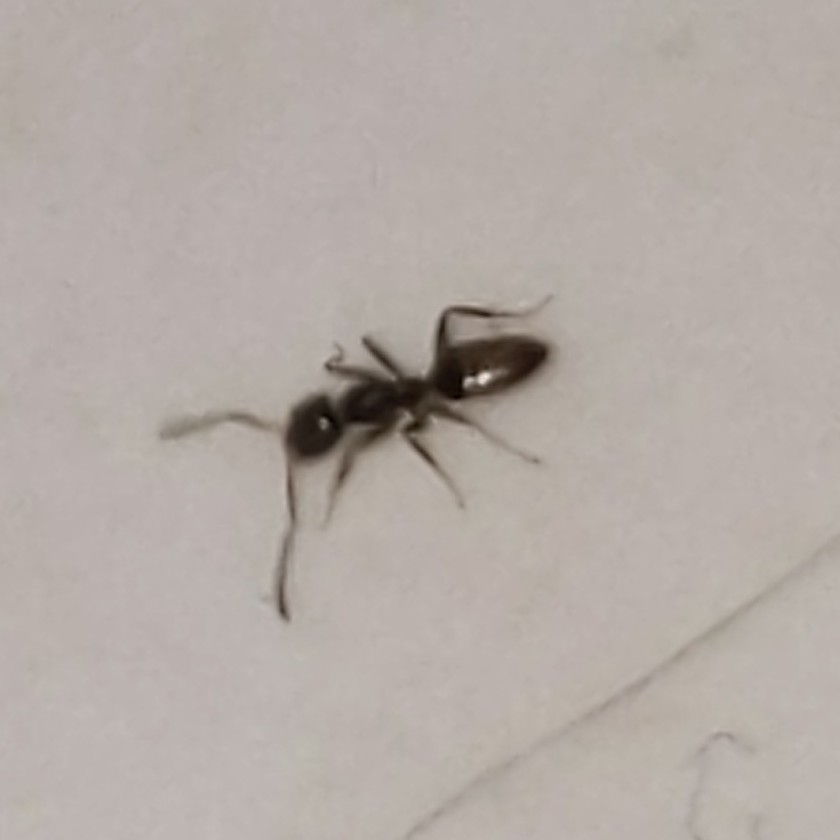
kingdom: Animalia
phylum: Arthropoda
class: Insecta
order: Hymenoptera
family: Formicidae
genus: Tapinoma
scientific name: Tapinoma sessile
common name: Odorous house ant
